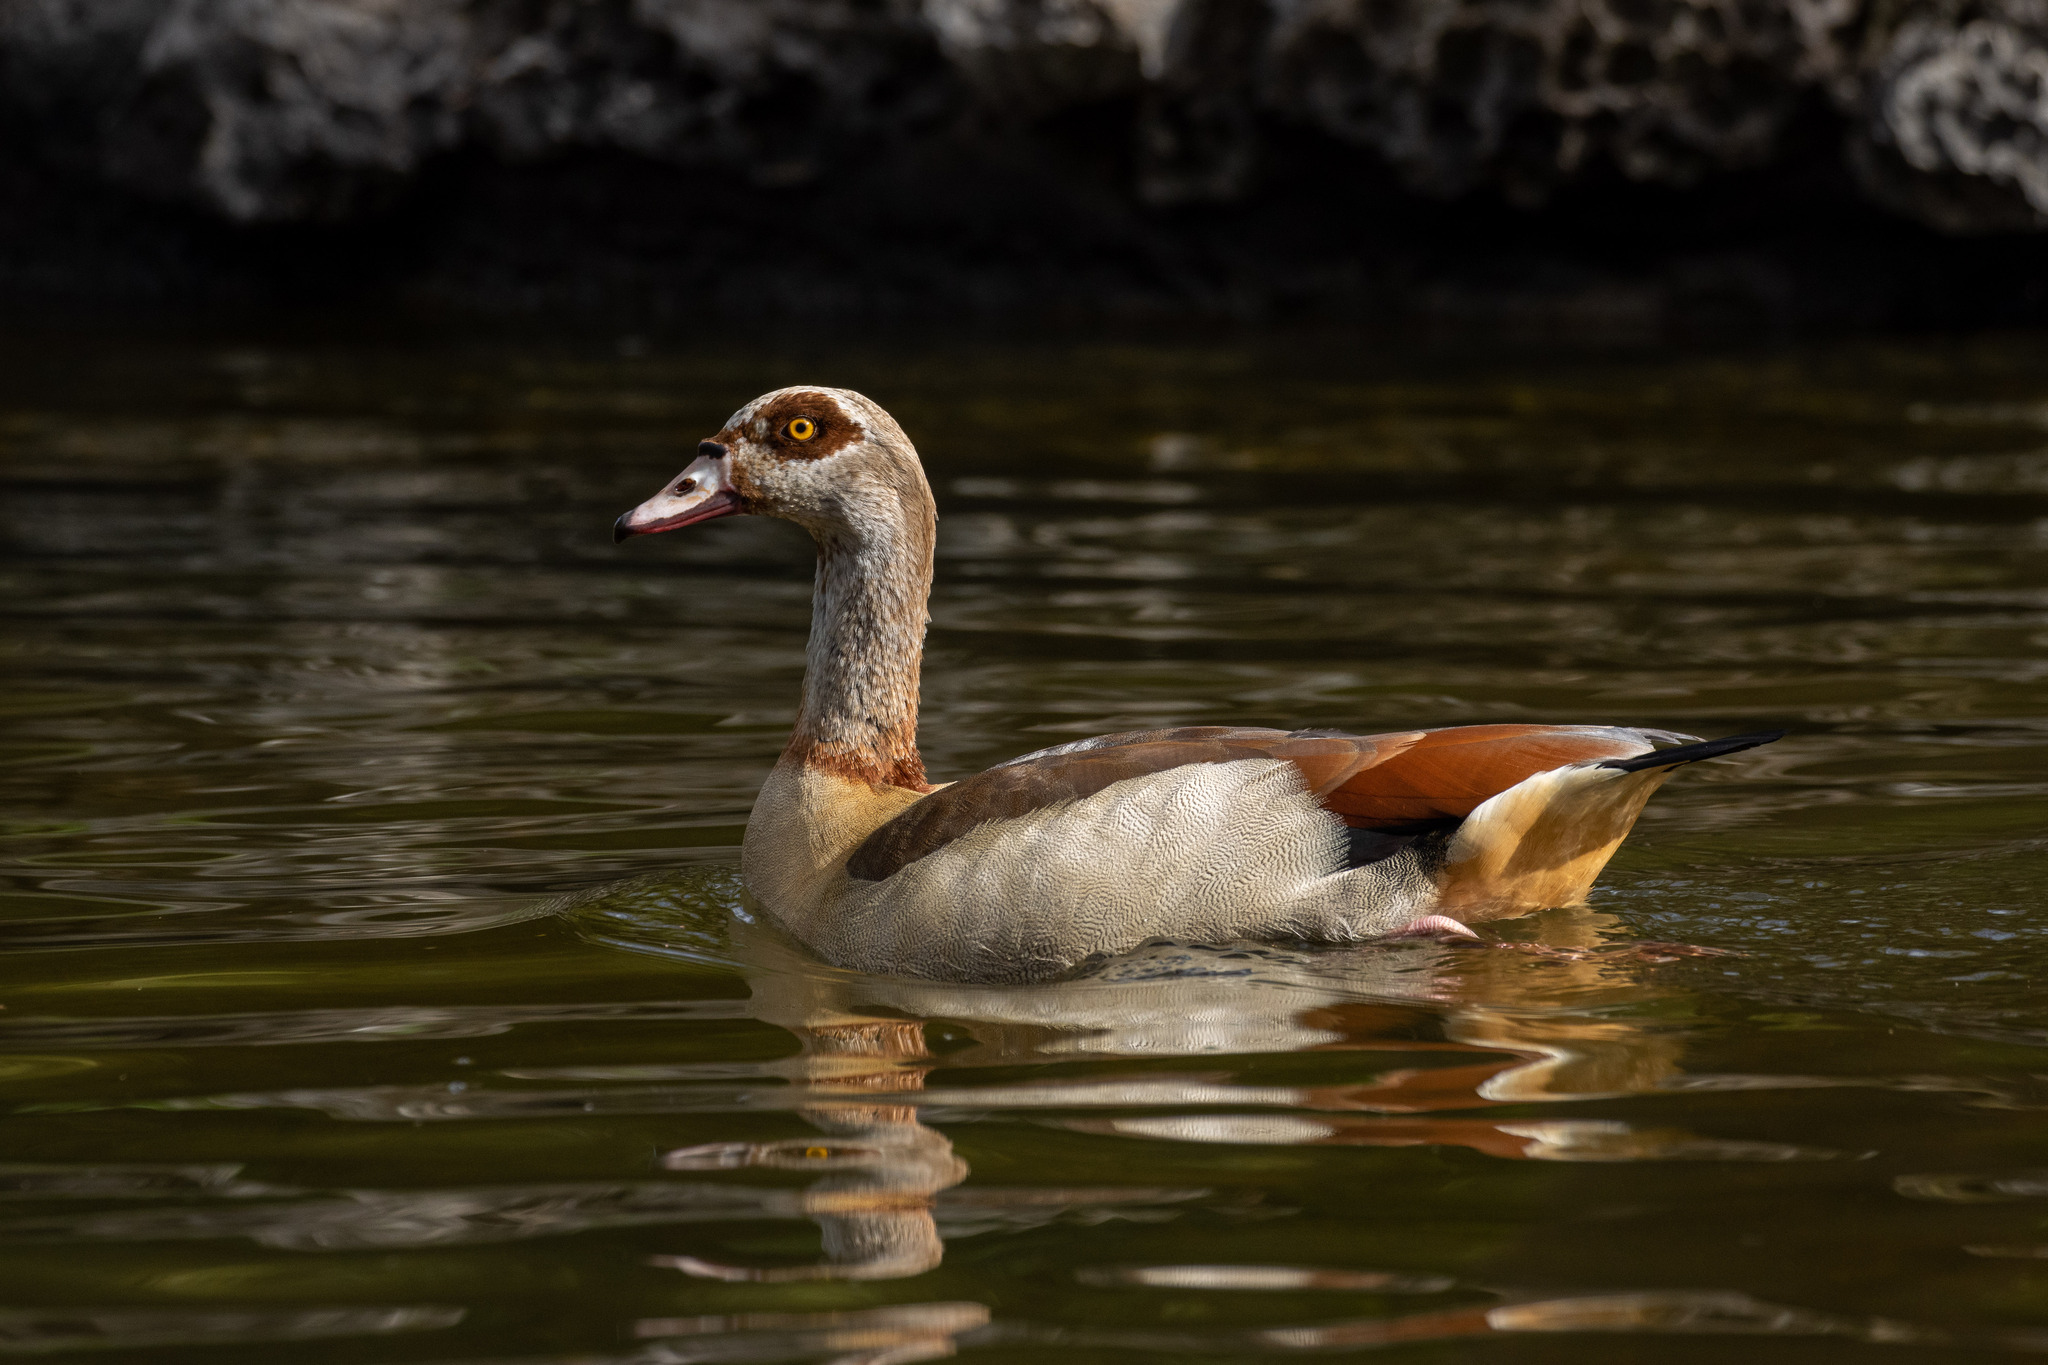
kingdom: Animalia
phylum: Chordata
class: Aves
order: Anseriformes
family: Anatidae
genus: Alopochen
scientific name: Alopochen aegyptiaca
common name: Egyptian goose
